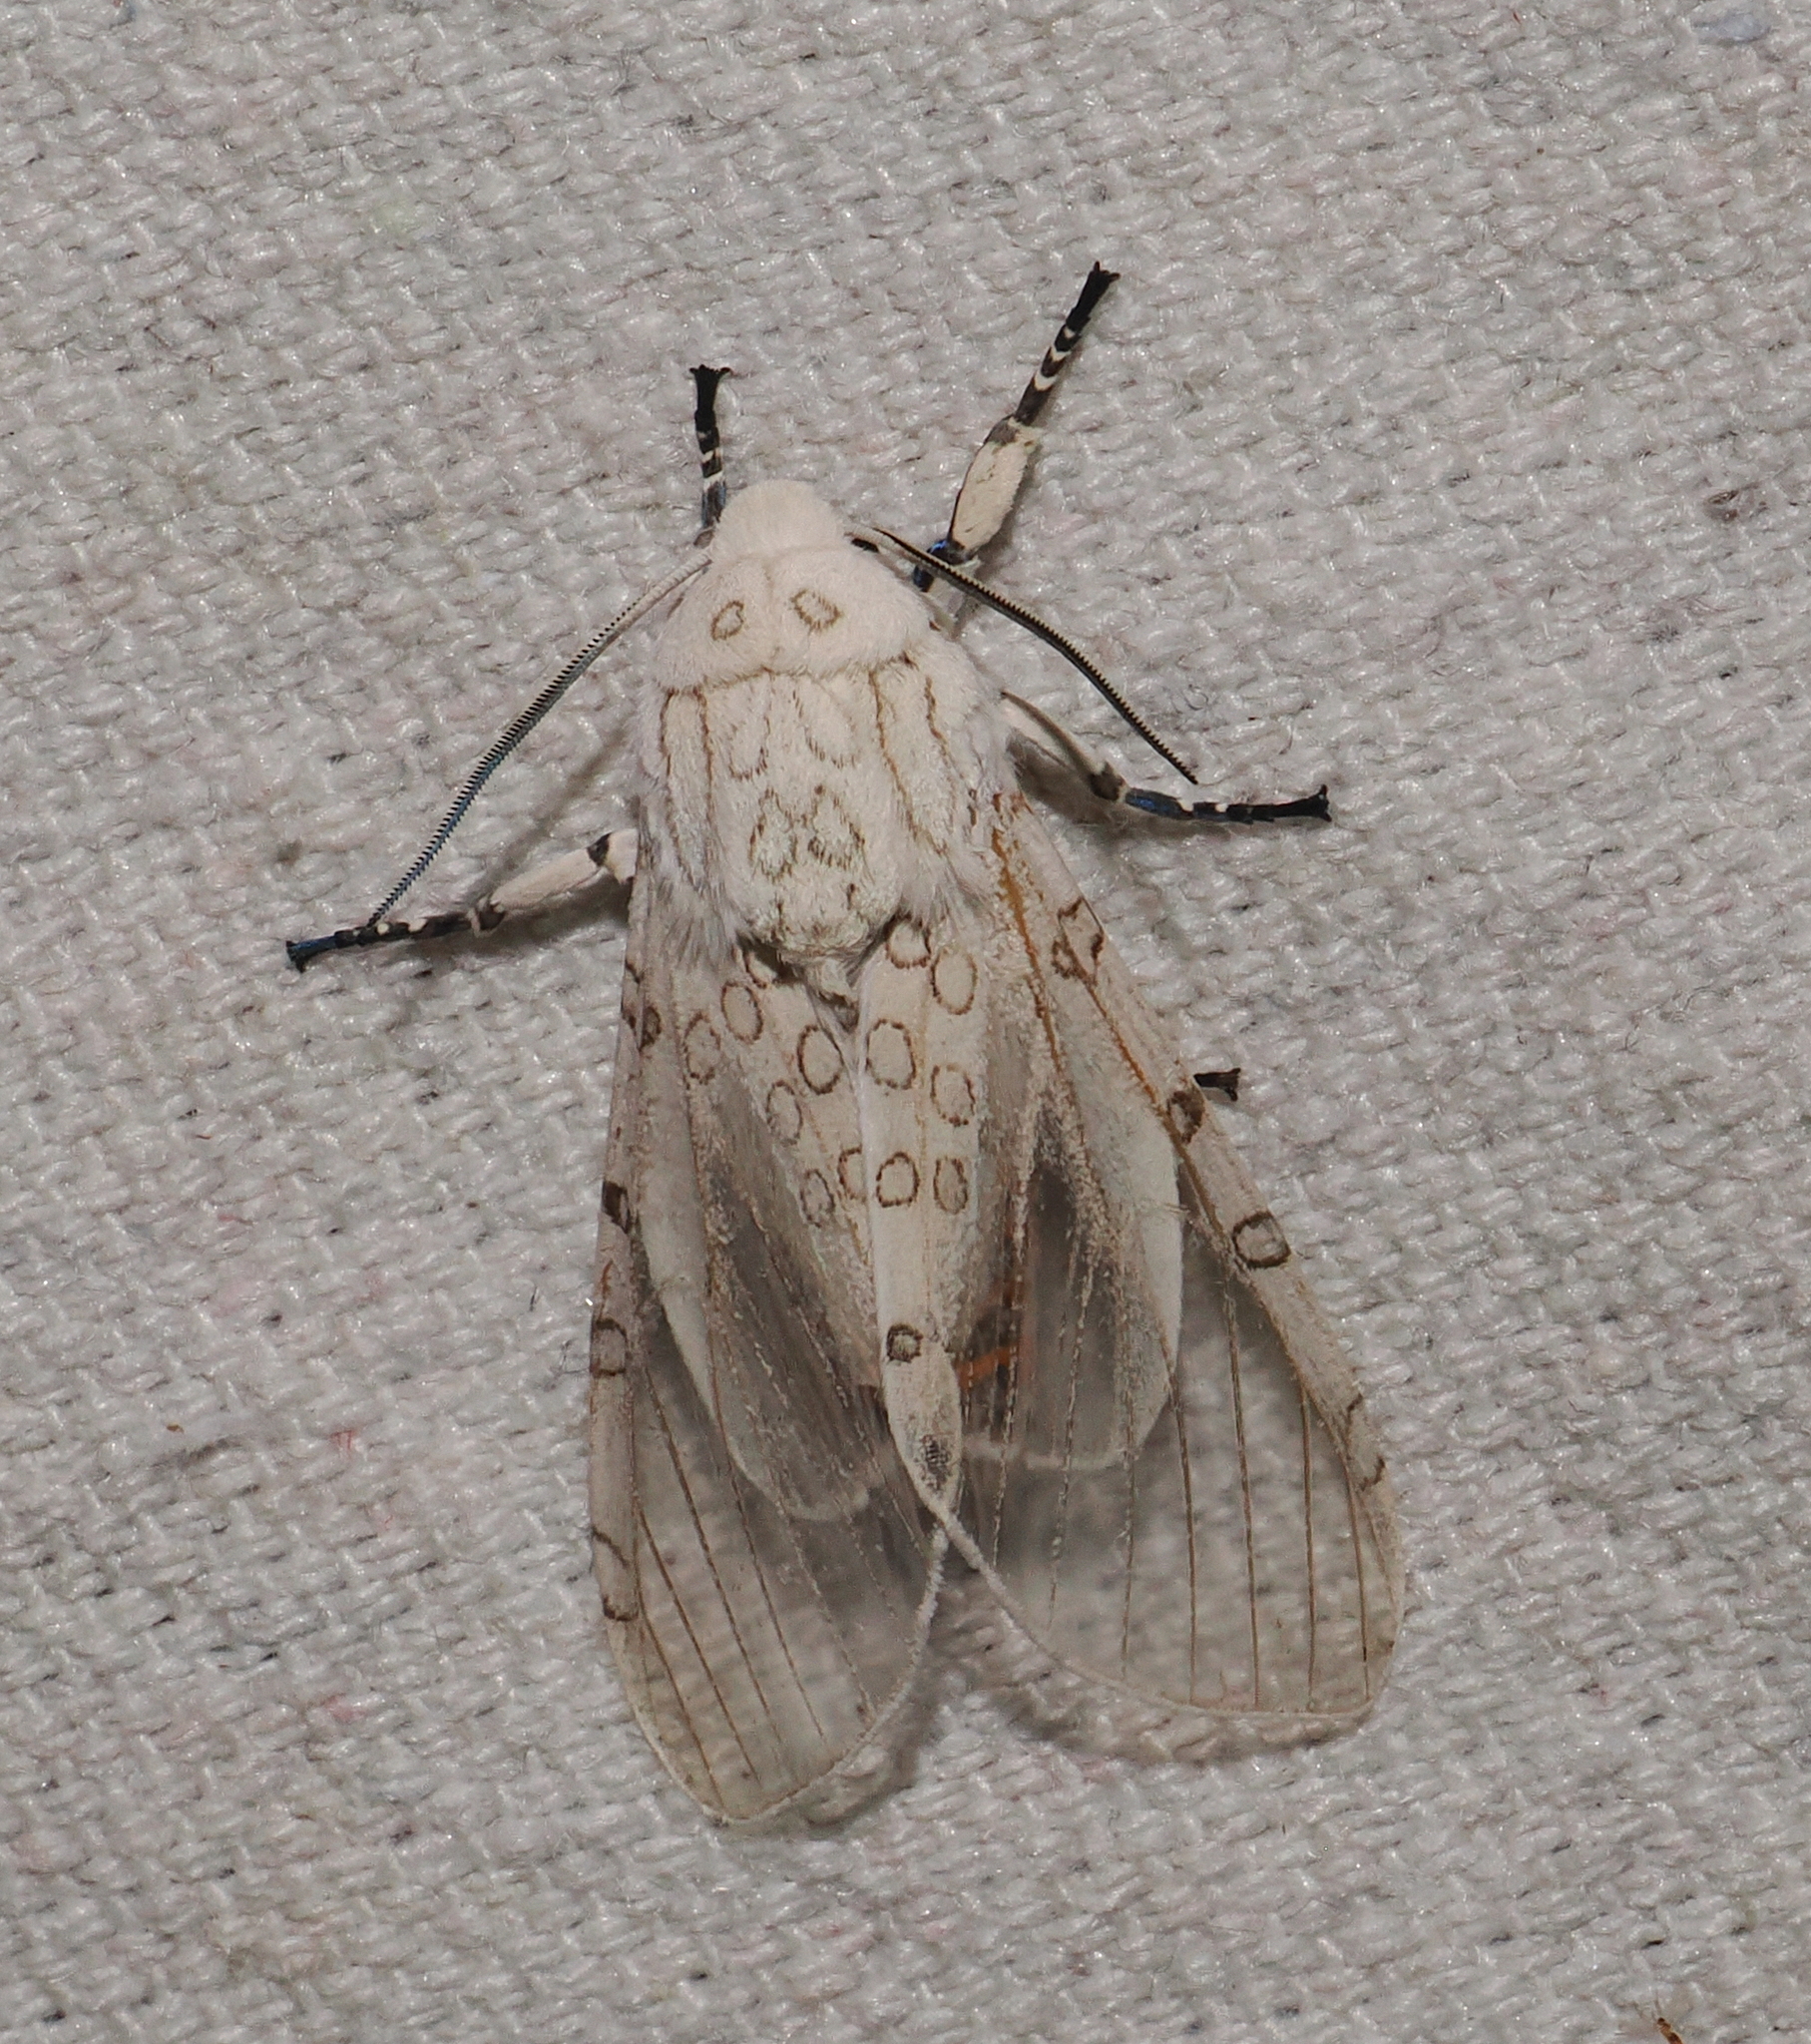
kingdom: Animalia
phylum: Arthropoda
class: Insecta
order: Lepidoptera
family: Erebidae
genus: Hypercompe
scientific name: Hypercompe muzina
